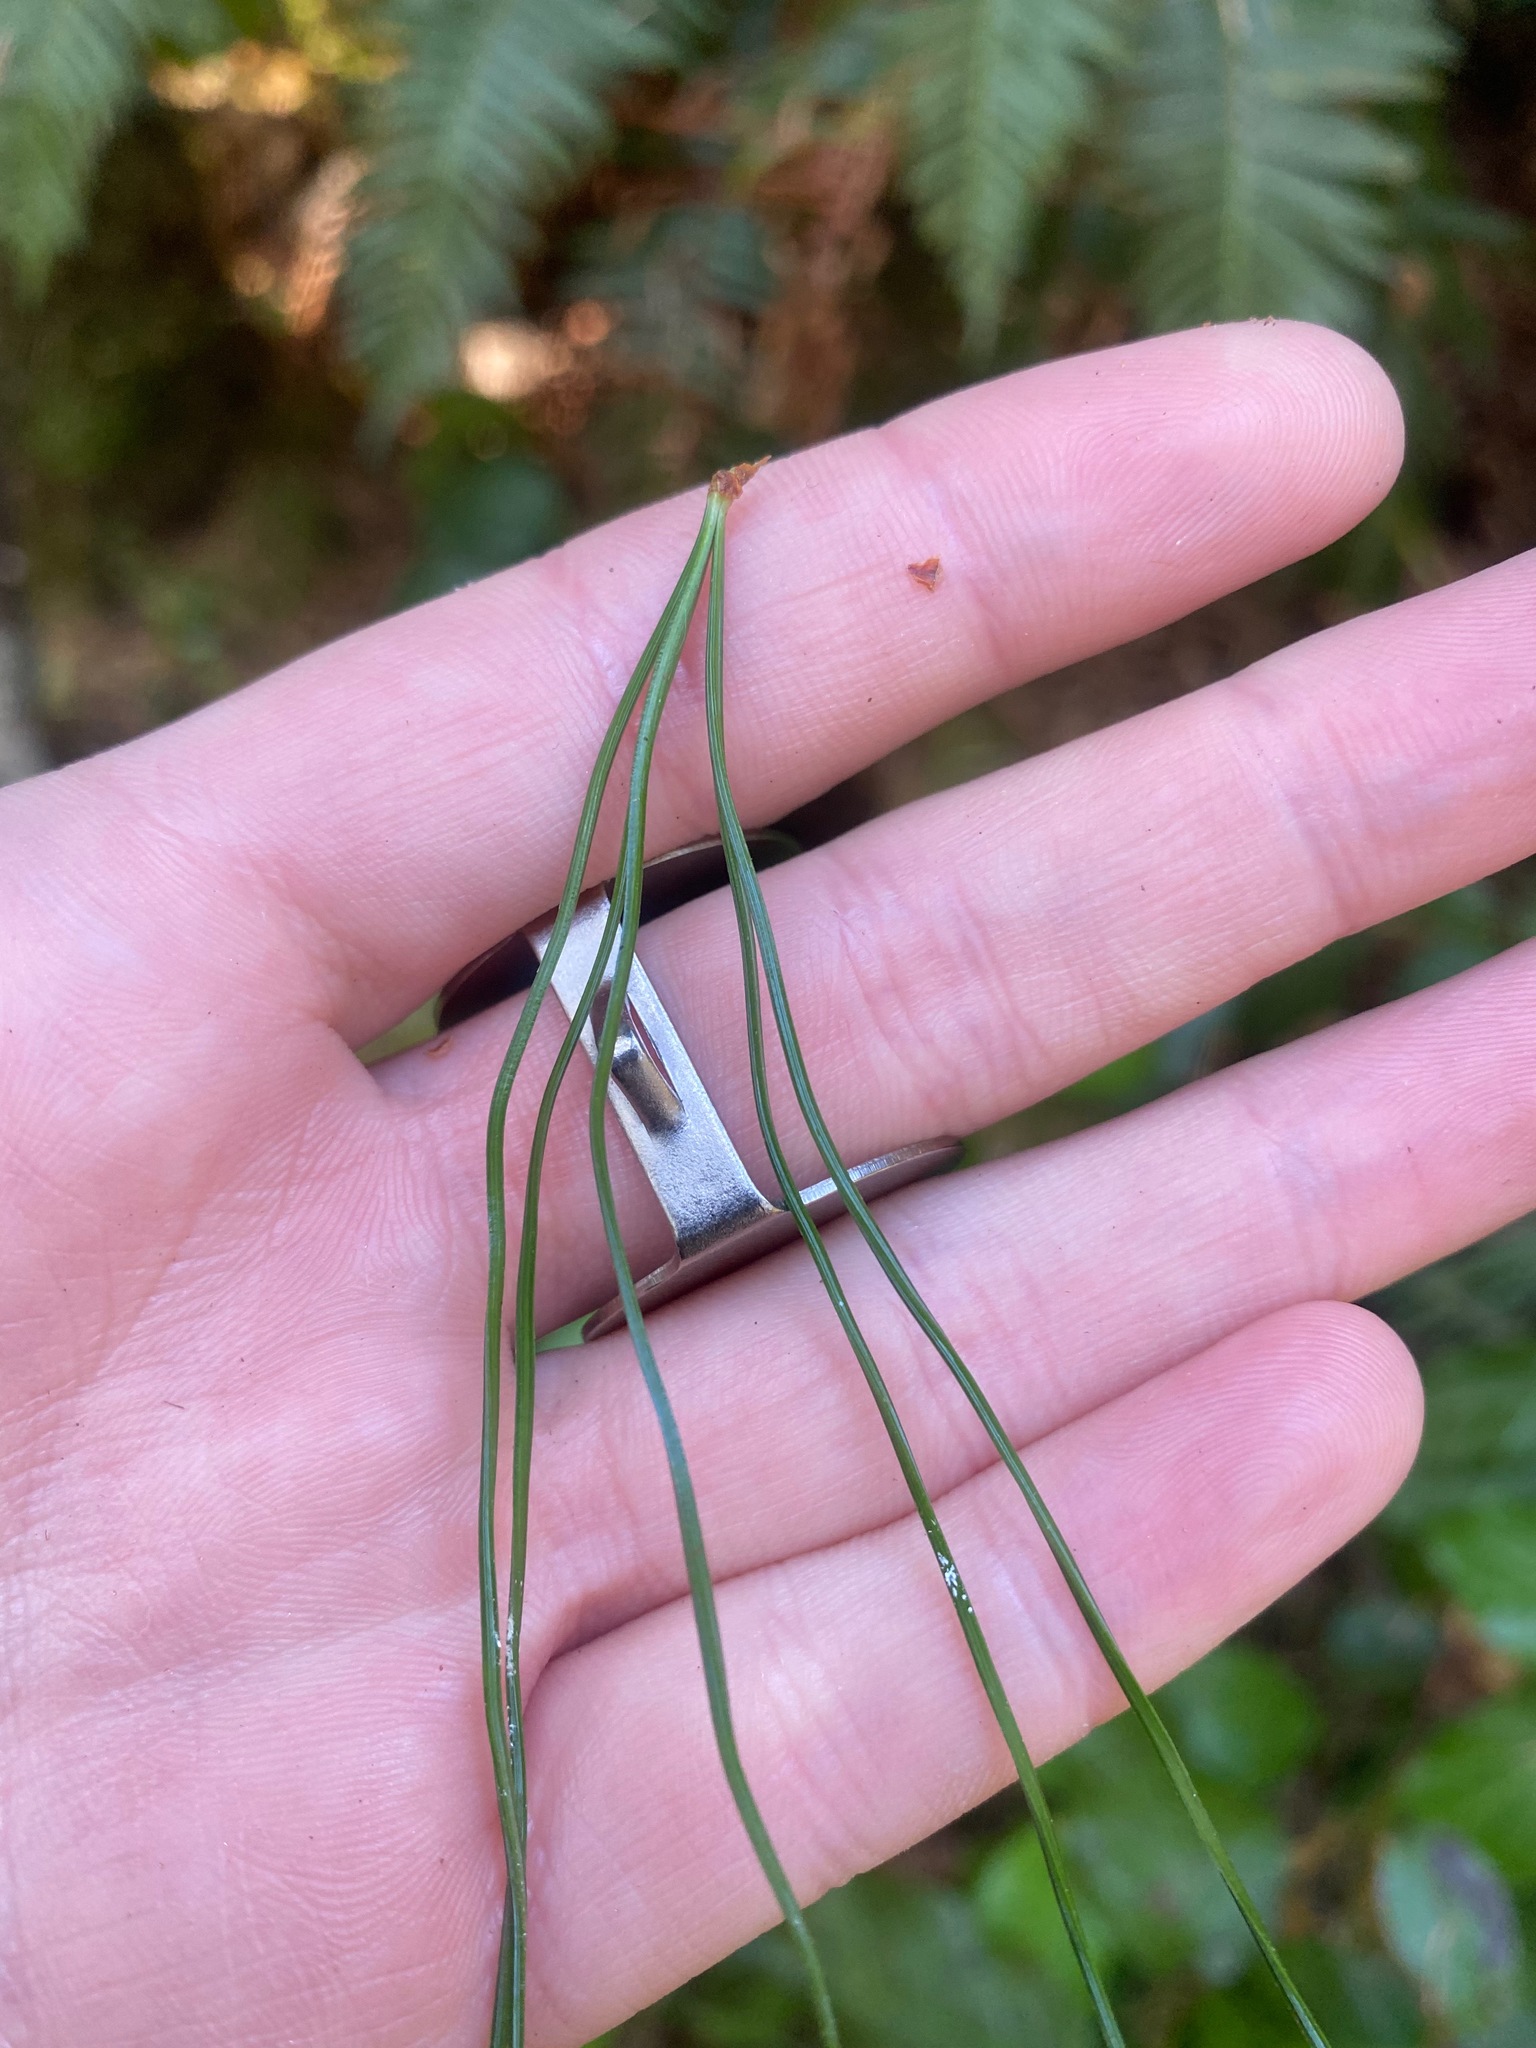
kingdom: Plantae
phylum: Tracheophyta
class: Pinopsida
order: Pinales
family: Pinaceae
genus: Pinus
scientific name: Pinus monticola
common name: Western white pine
